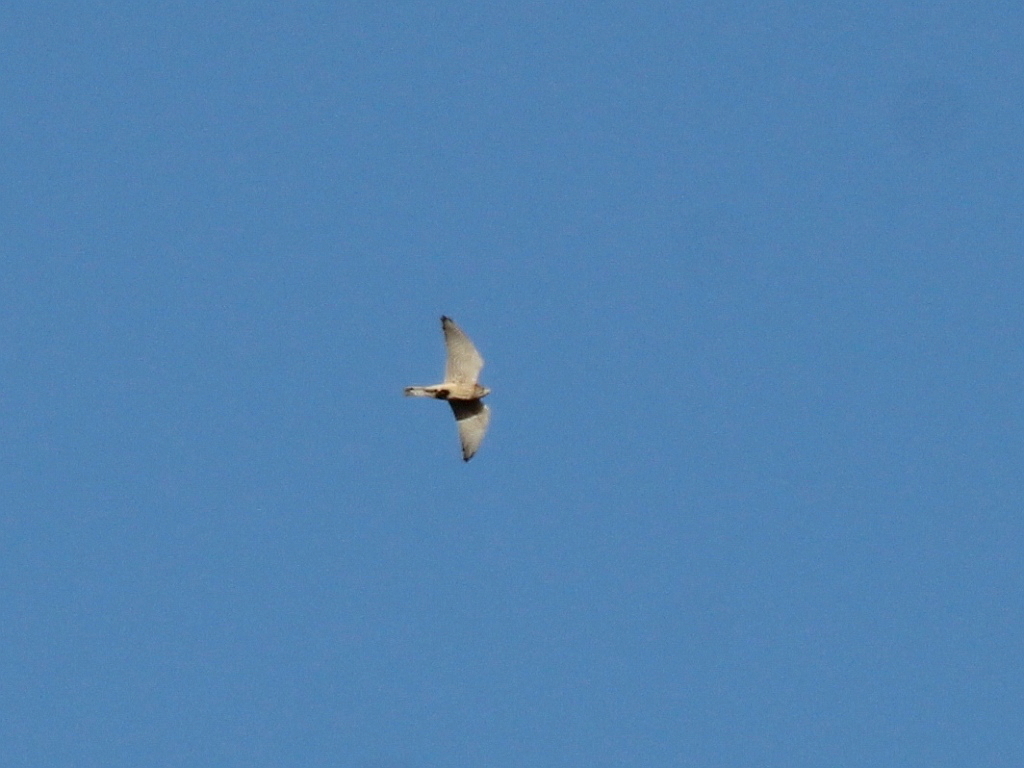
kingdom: Animalia
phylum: Chordata
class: Aves
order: Falconiformes
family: Falconidae
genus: Falco
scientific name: Falco tinnunculus
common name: Common kestrel
